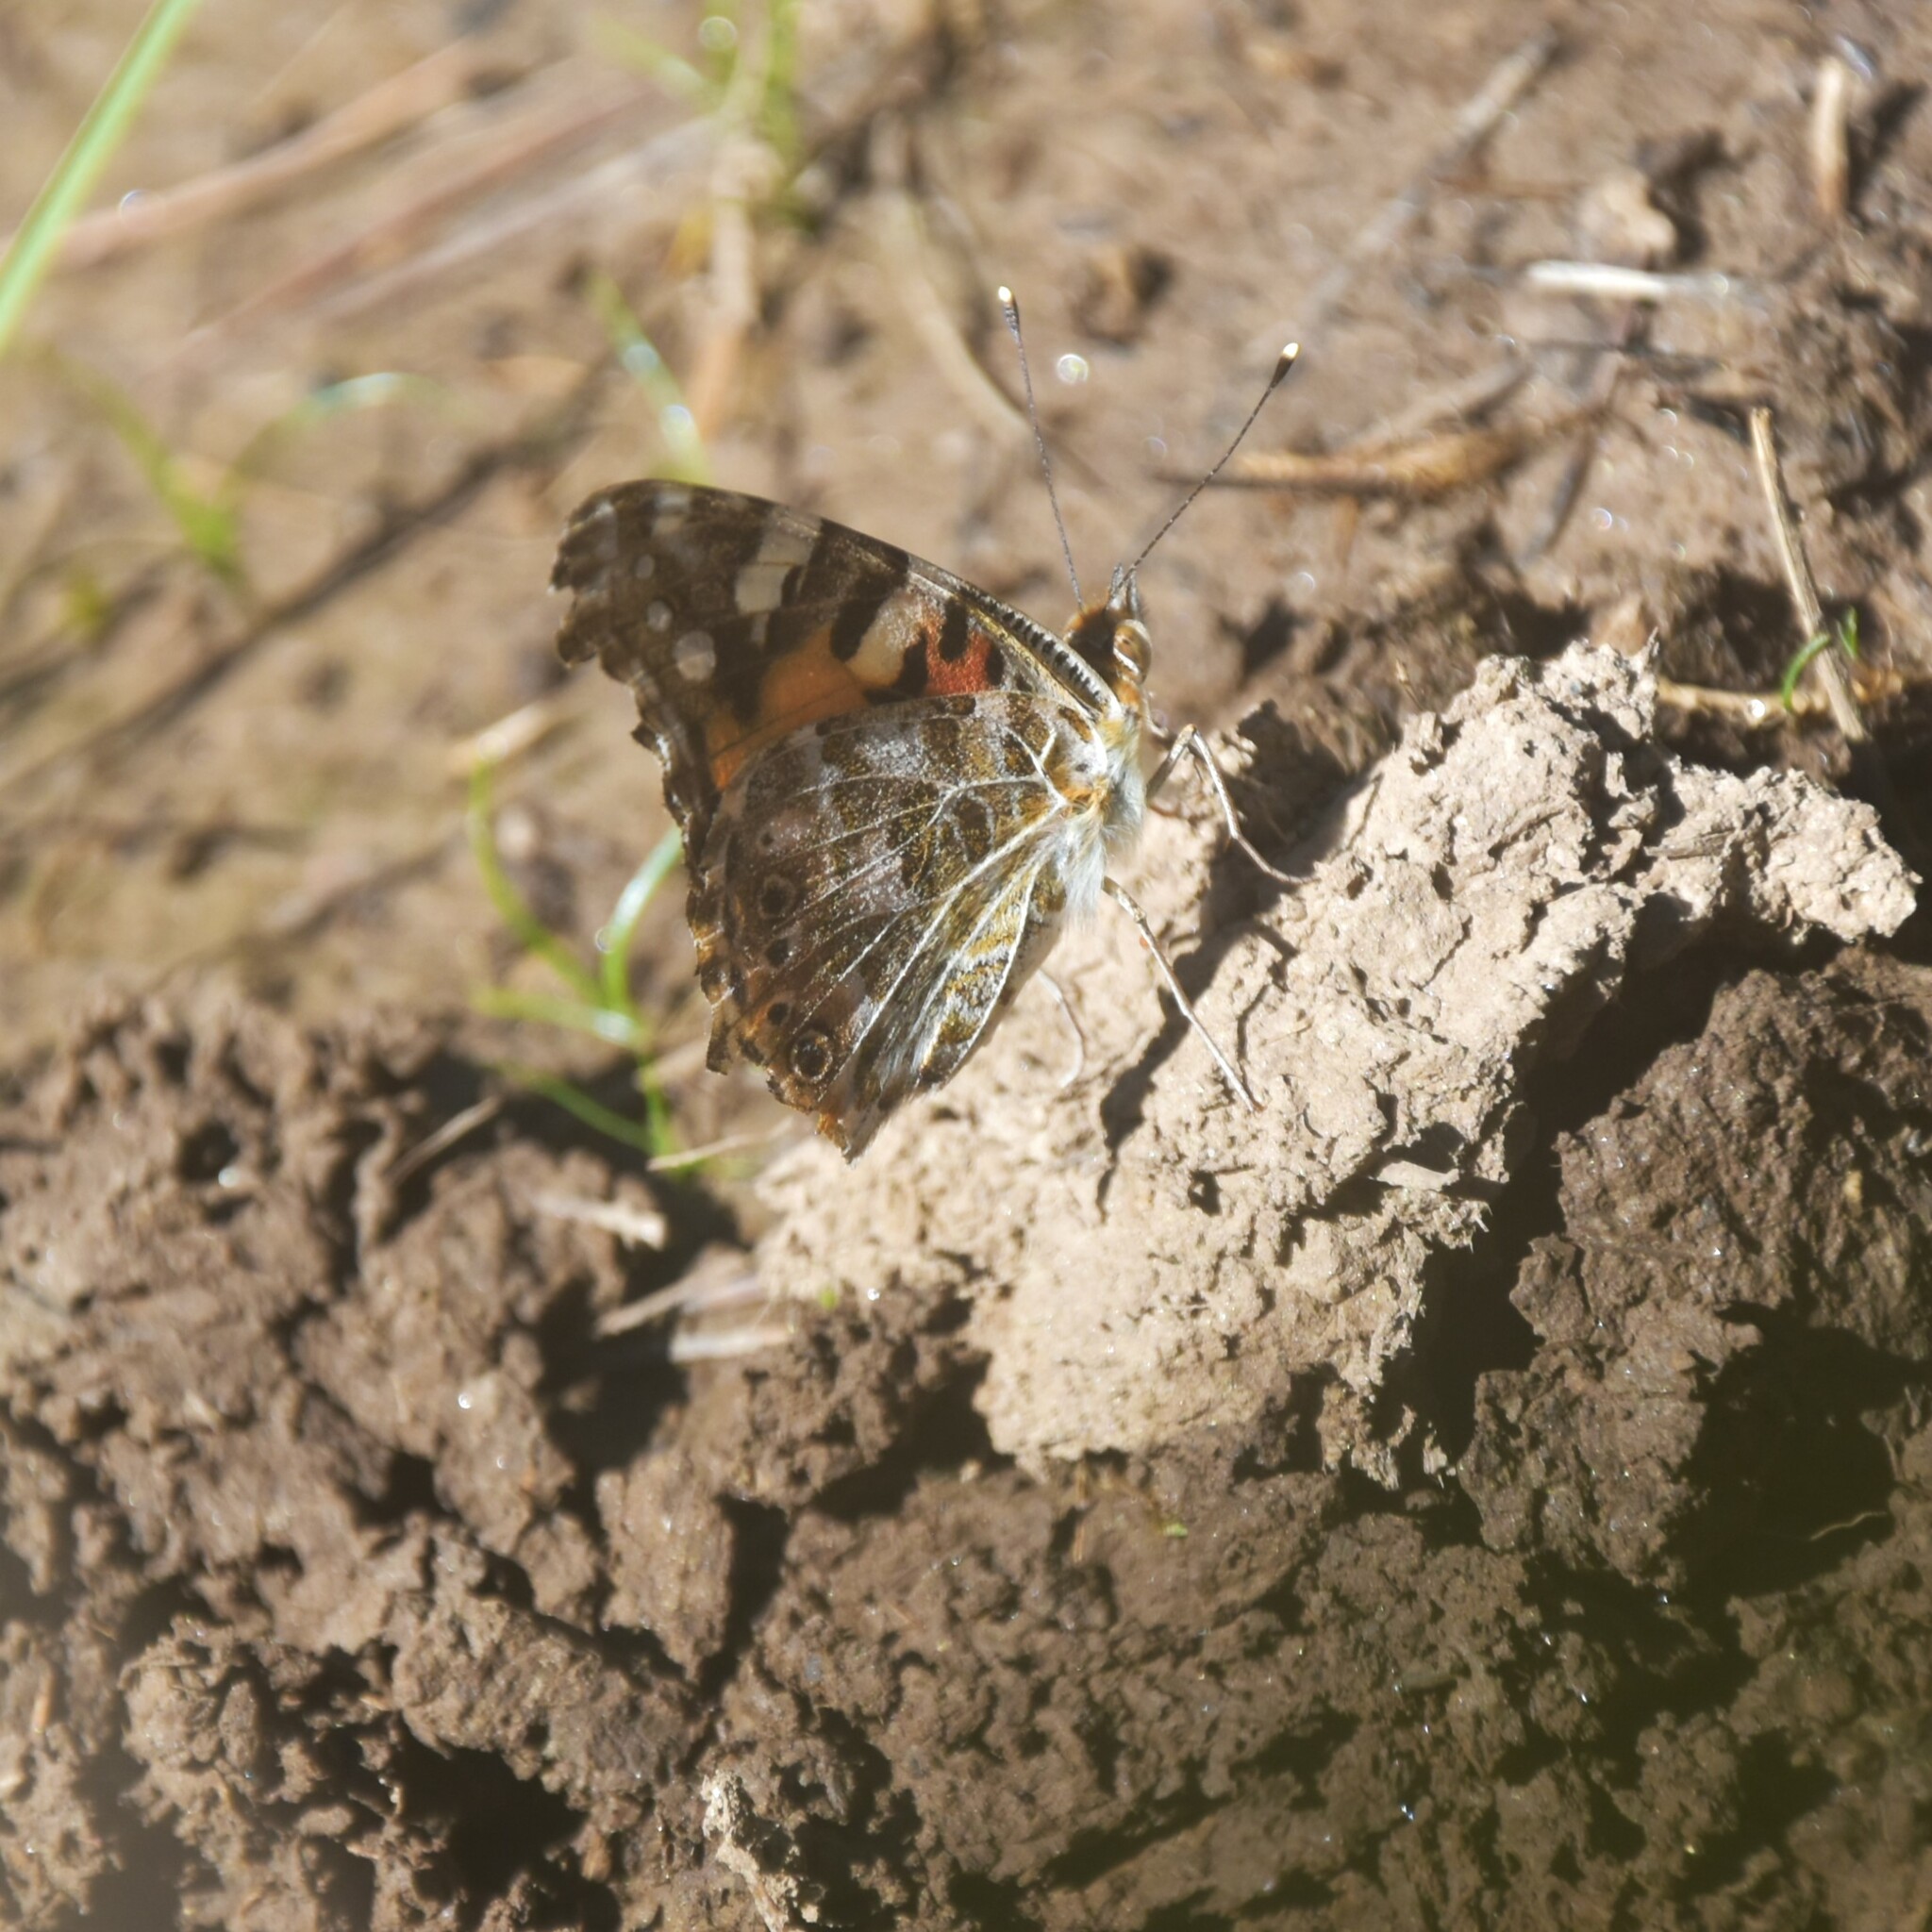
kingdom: Animalia
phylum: Arthropoda
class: Insecta
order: Lepidoptera
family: Nymphalidae
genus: Vanessa
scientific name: Vanessa cardui
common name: Painted lady
